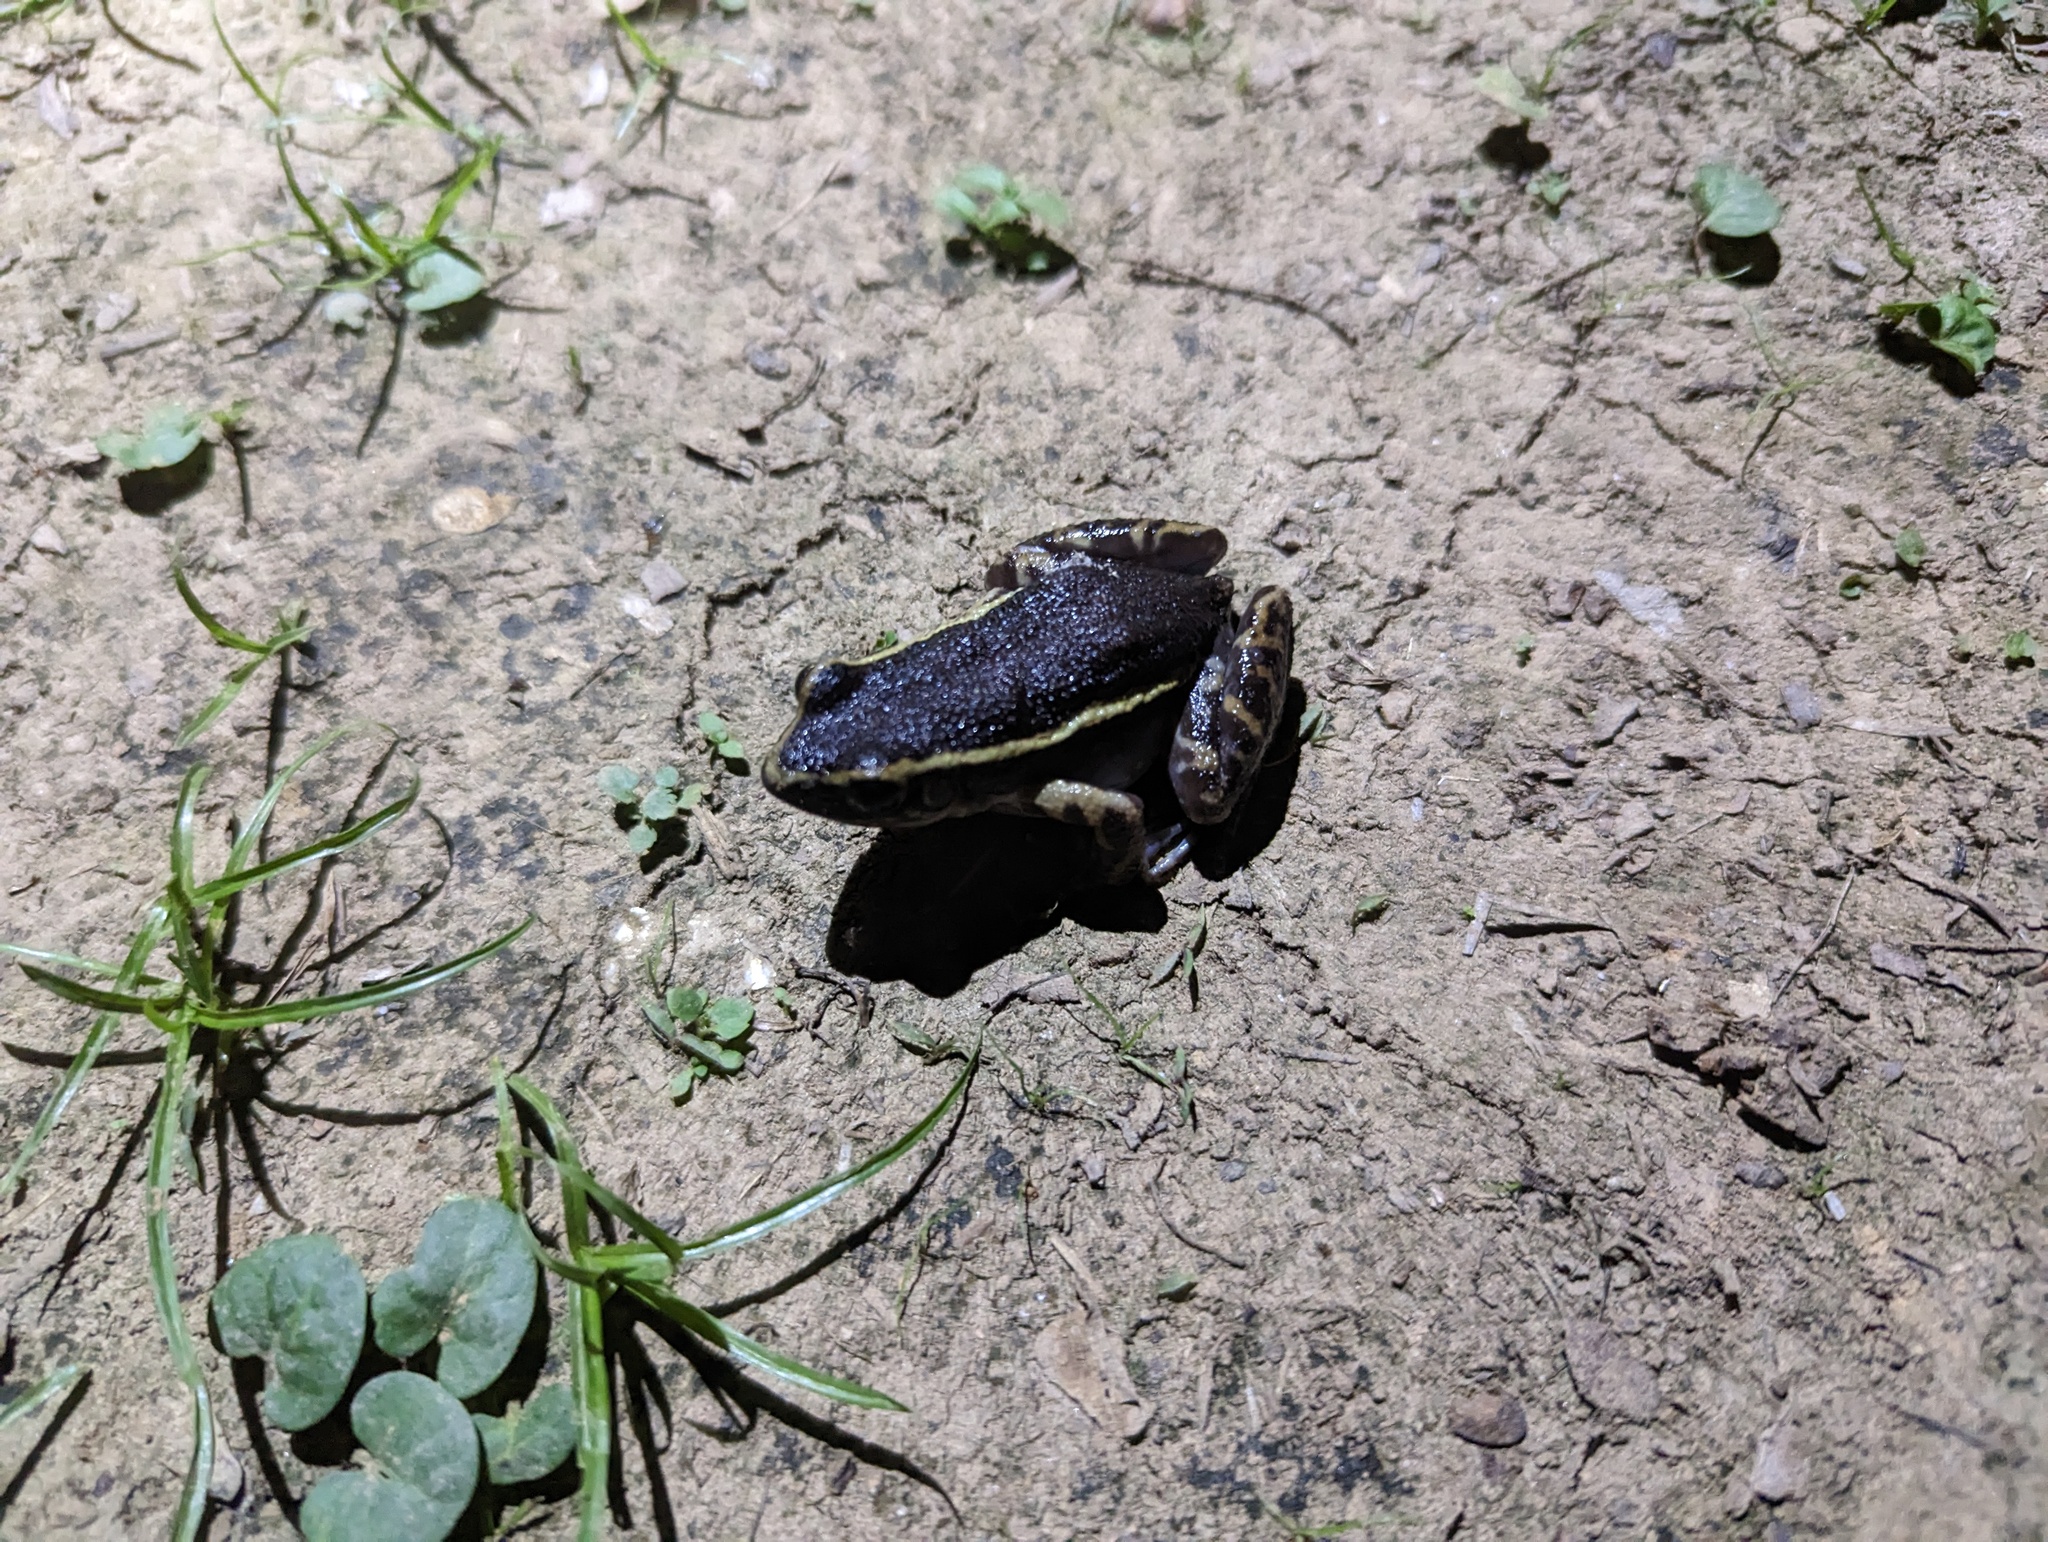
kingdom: Animalia
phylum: Chordata
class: Amphibia
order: Anura
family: Leptodactylidae
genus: Lithodytes
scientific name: Lithodytes lineatus
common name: Gold-striped frog
